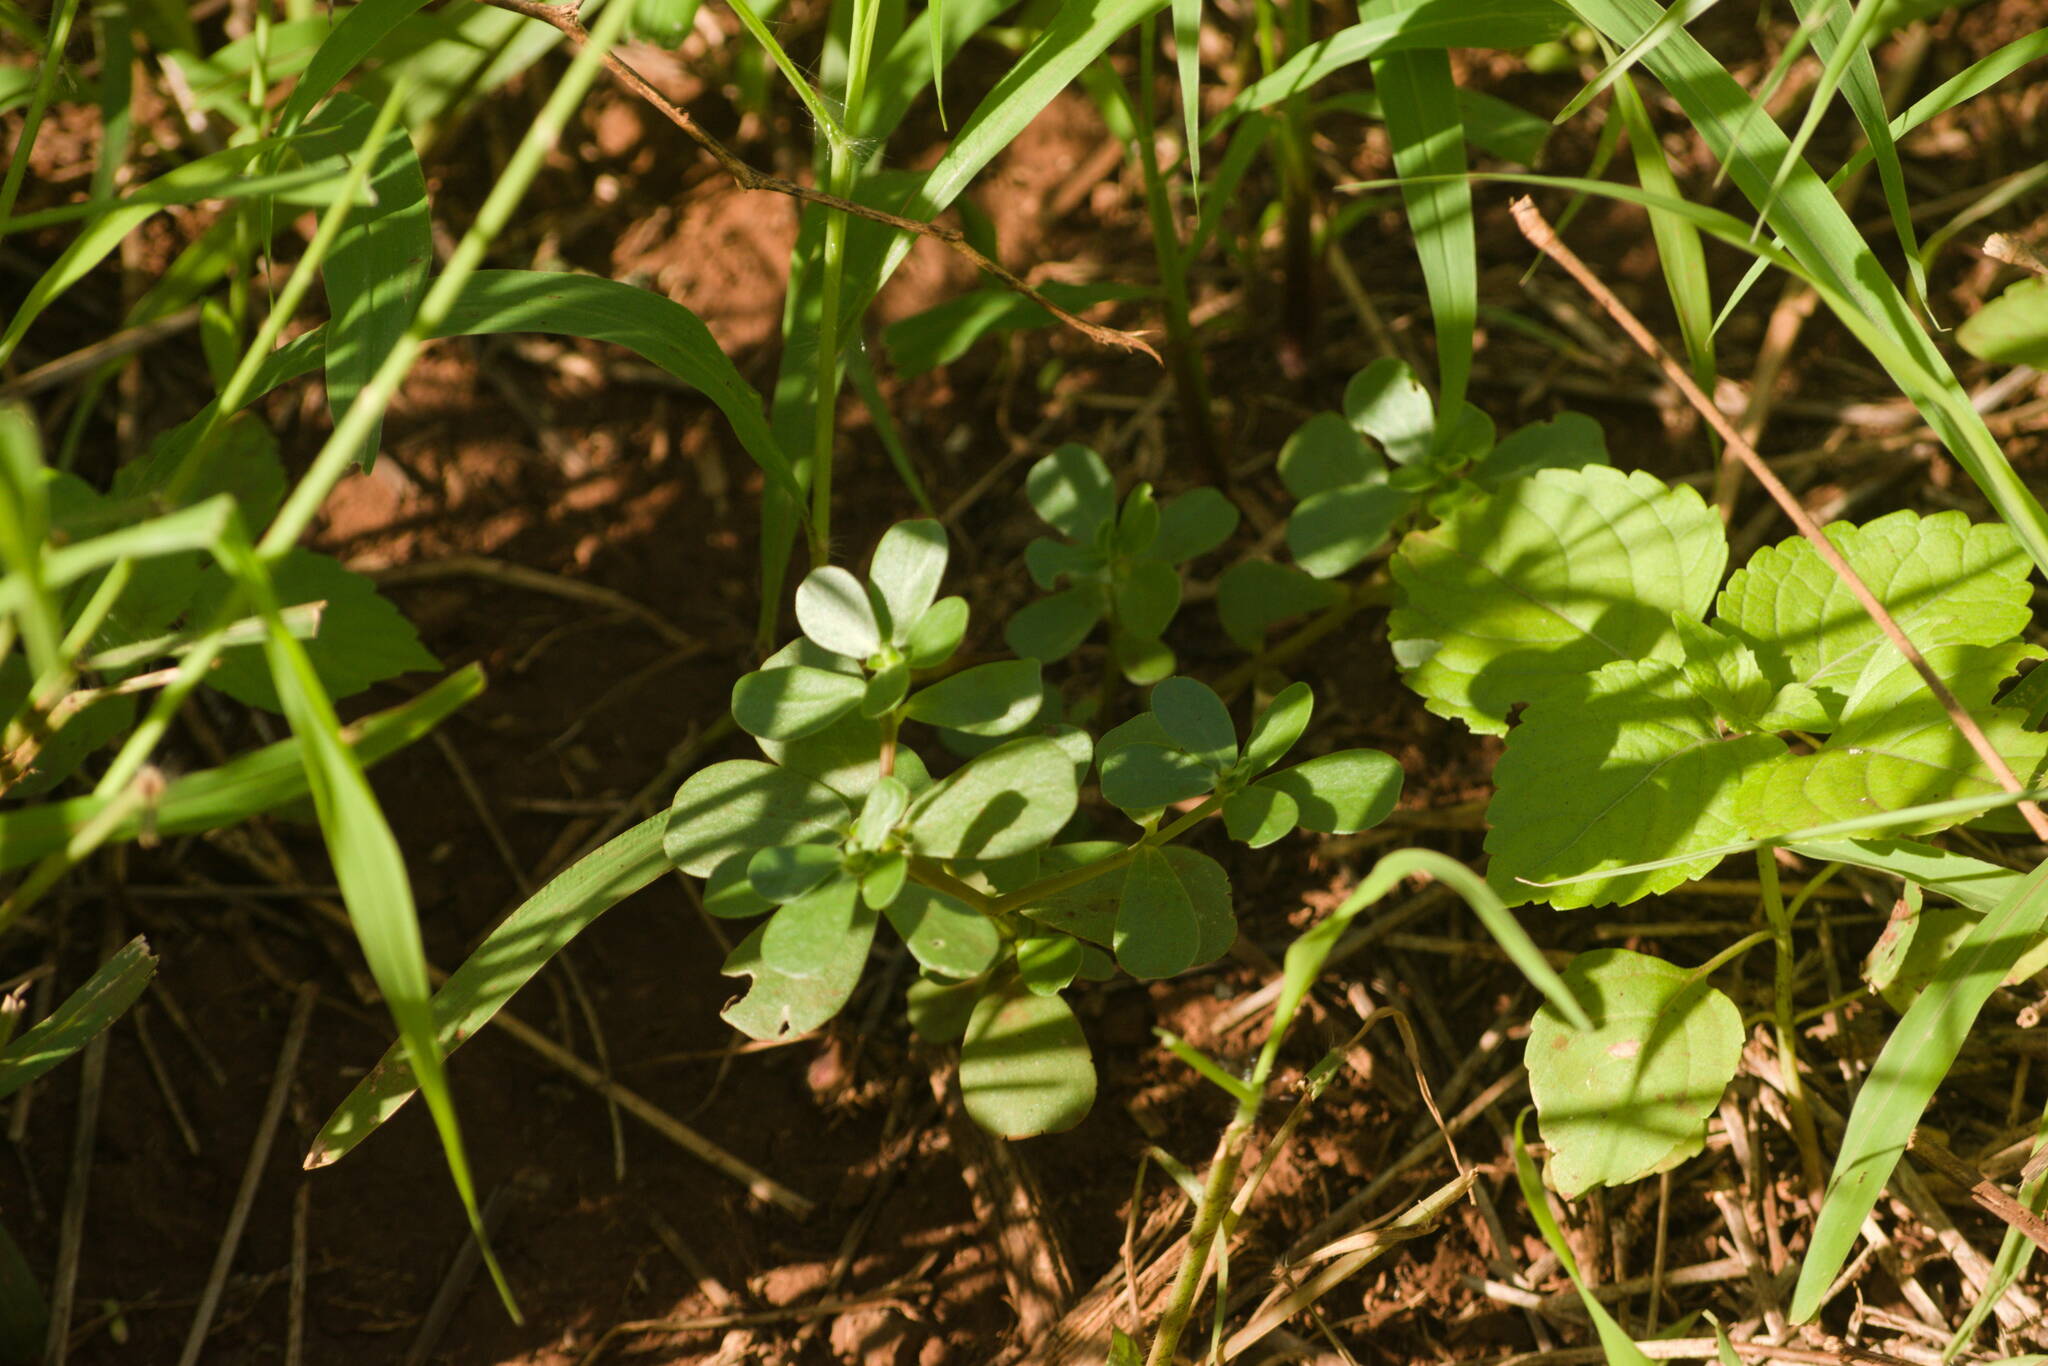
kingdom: Plantae
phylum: Tracheophyta
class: Magnoliopsida
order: Caryophyllales
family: Portulacaceae
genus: Portulaca
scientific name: Portulaca oleracea
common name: Common purslane
